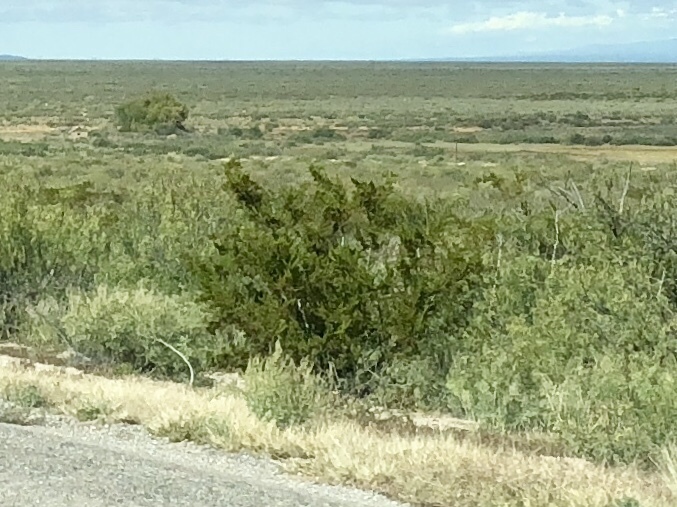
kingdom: Plantae
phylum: Tracheophyta
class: Magnoliopsida
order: Zygophyllales
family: Zygophyllaceae
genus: Larrea
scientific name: Larrea tridentata
